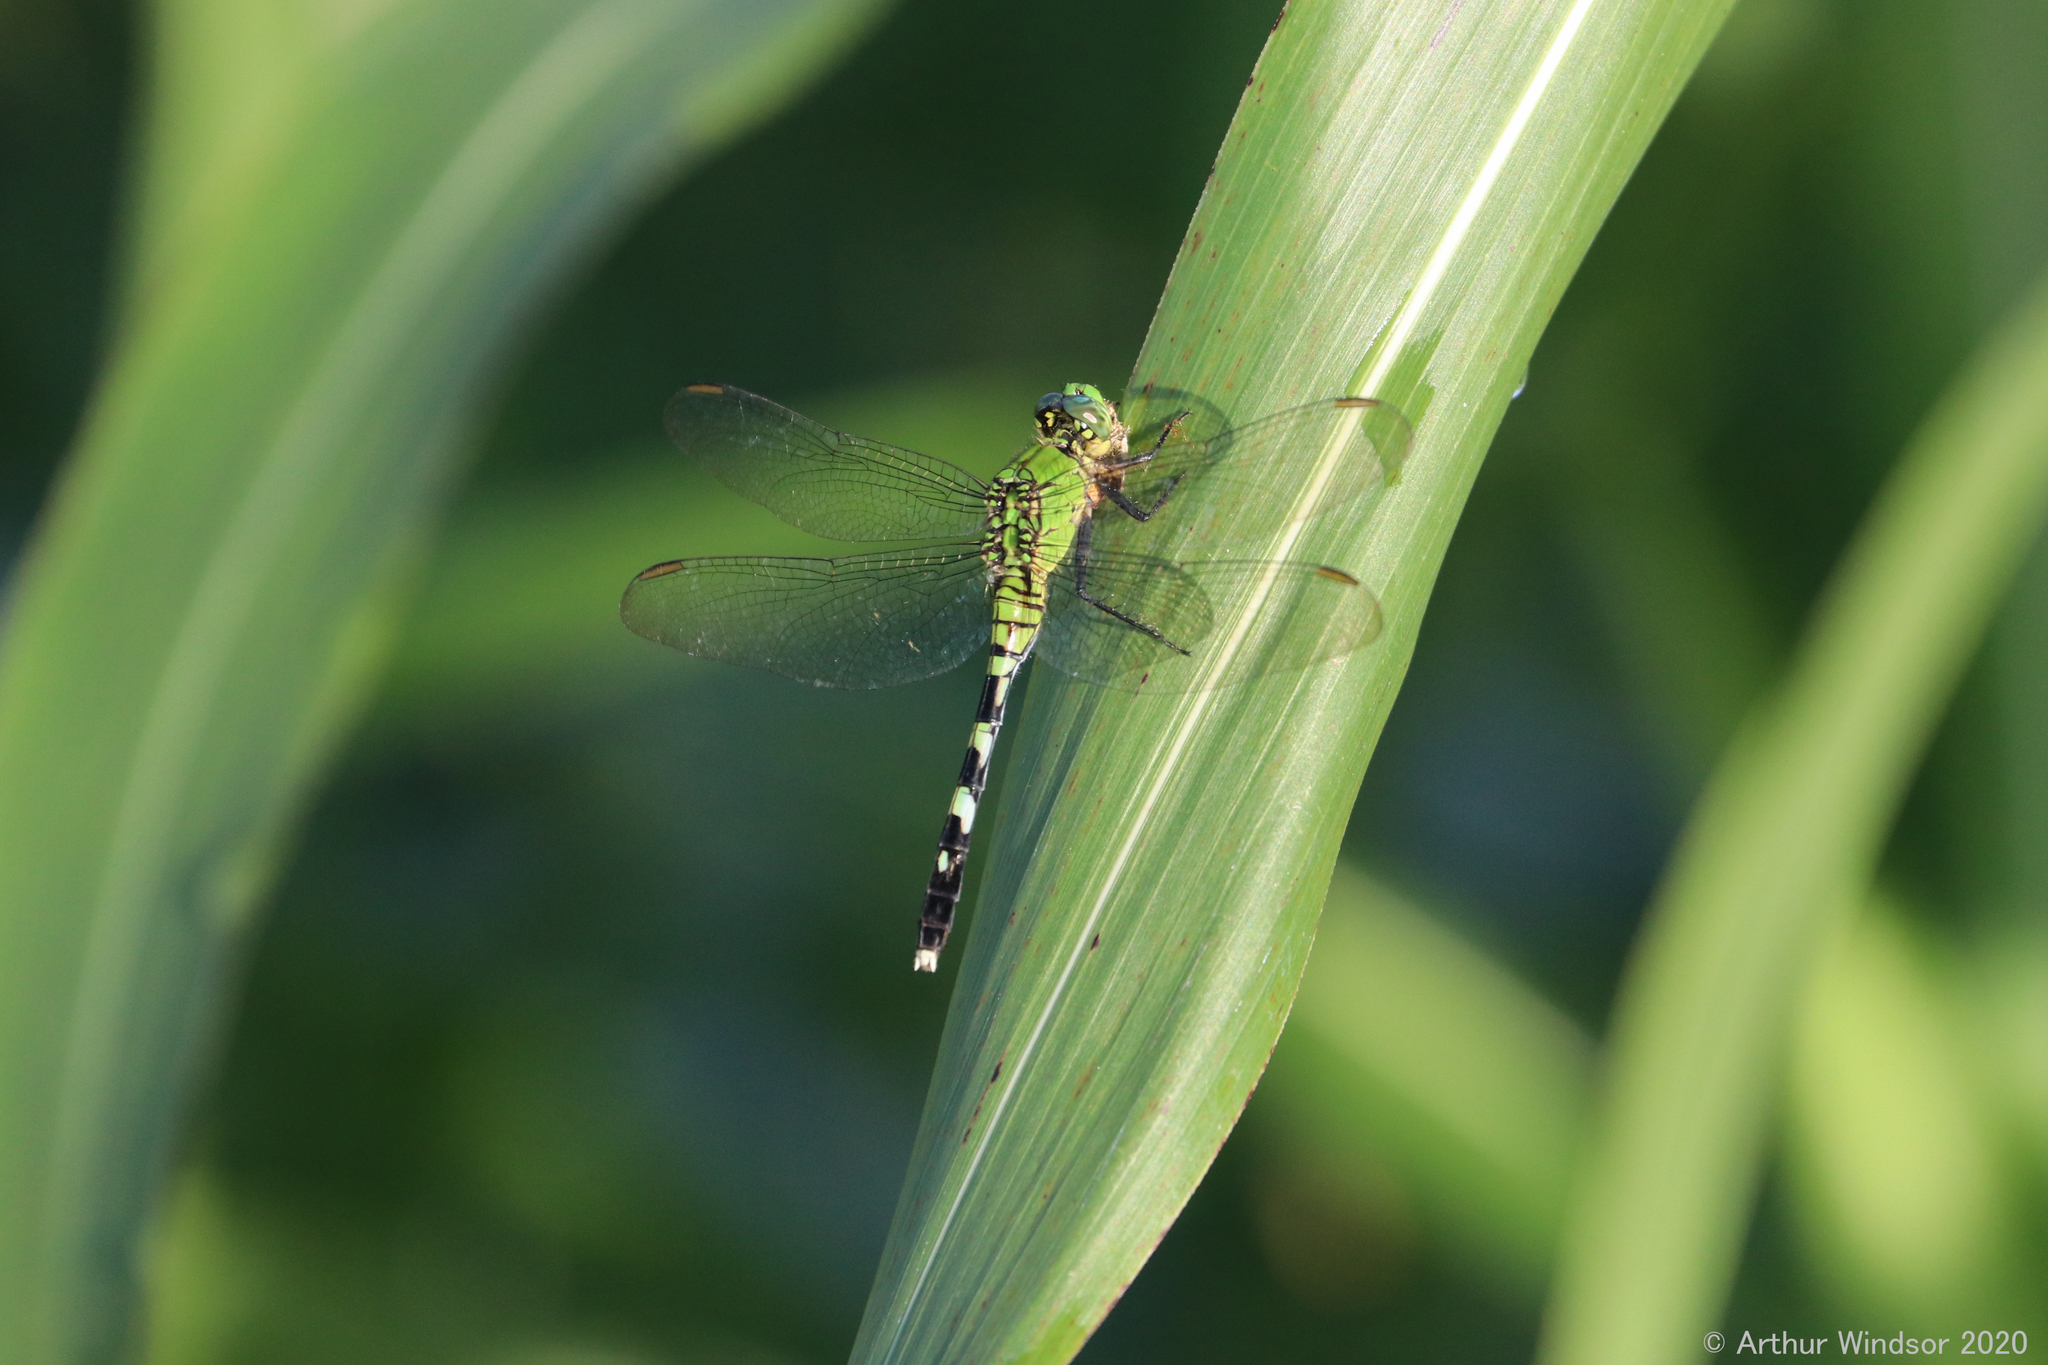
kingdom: Animalia
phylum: Arthropoda
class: Insecta
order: Odonata
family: Libellulidae
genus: Erythemis
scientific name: Erythemis simplicicollis
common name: Eastern pondhawk
